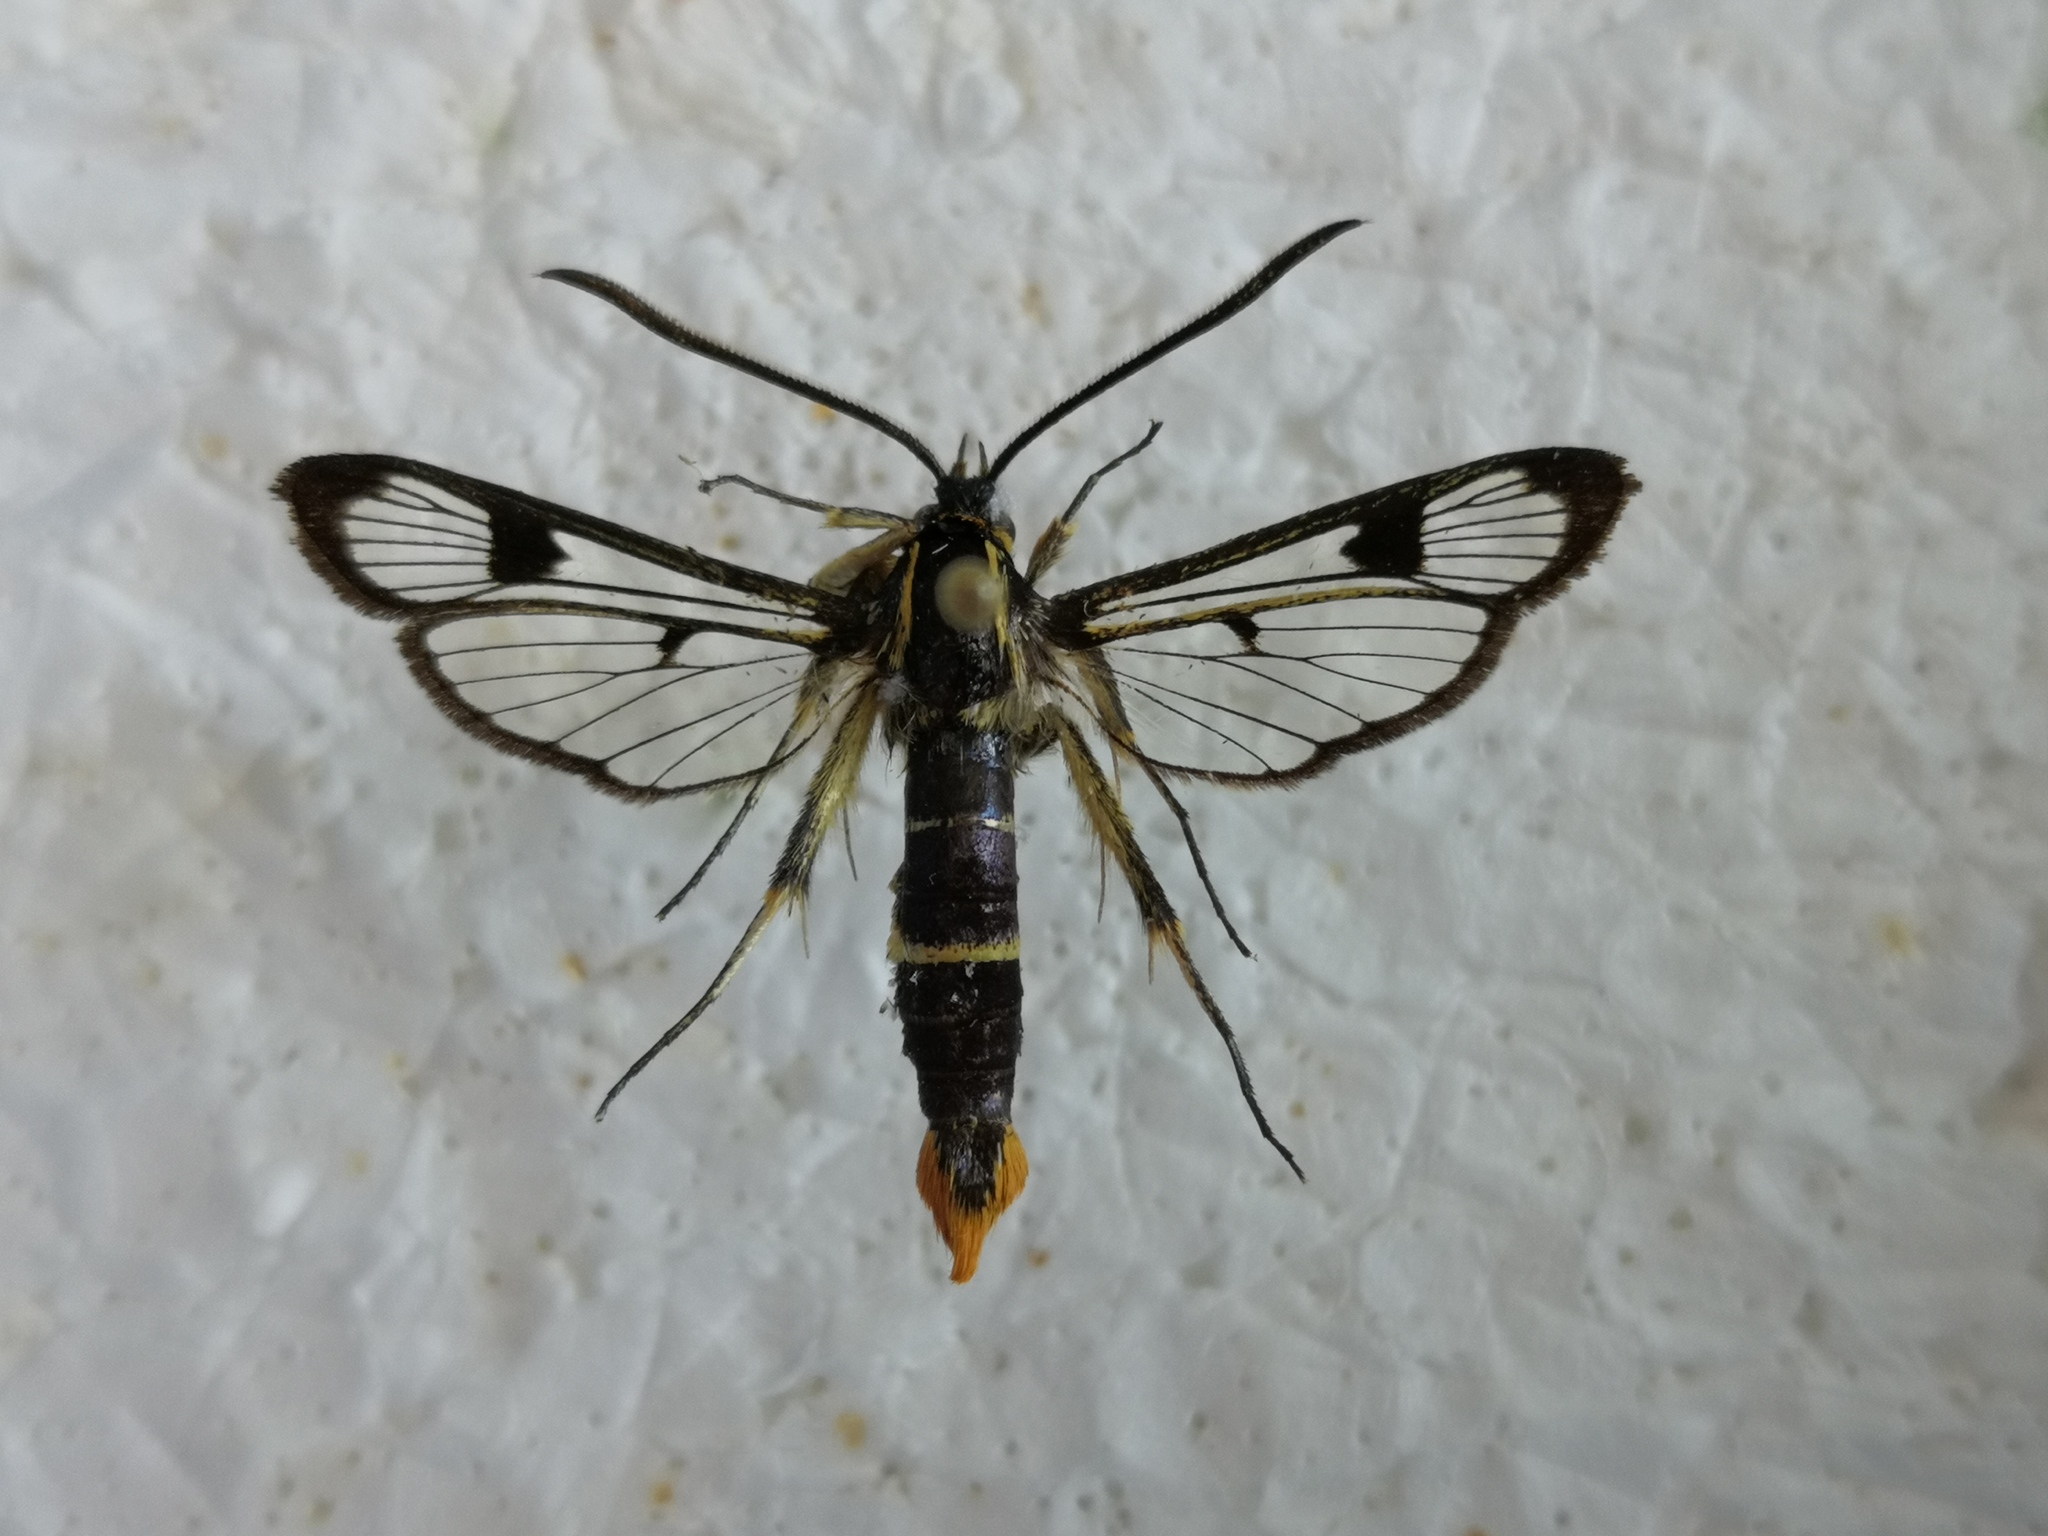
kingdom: Animalia
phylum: Arthropoda
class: Insecta
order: Lepidoptera
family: Sesiidae
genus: Synanthedon
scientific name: Synanthedon scoliaeformis
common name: Welsh clearwing
